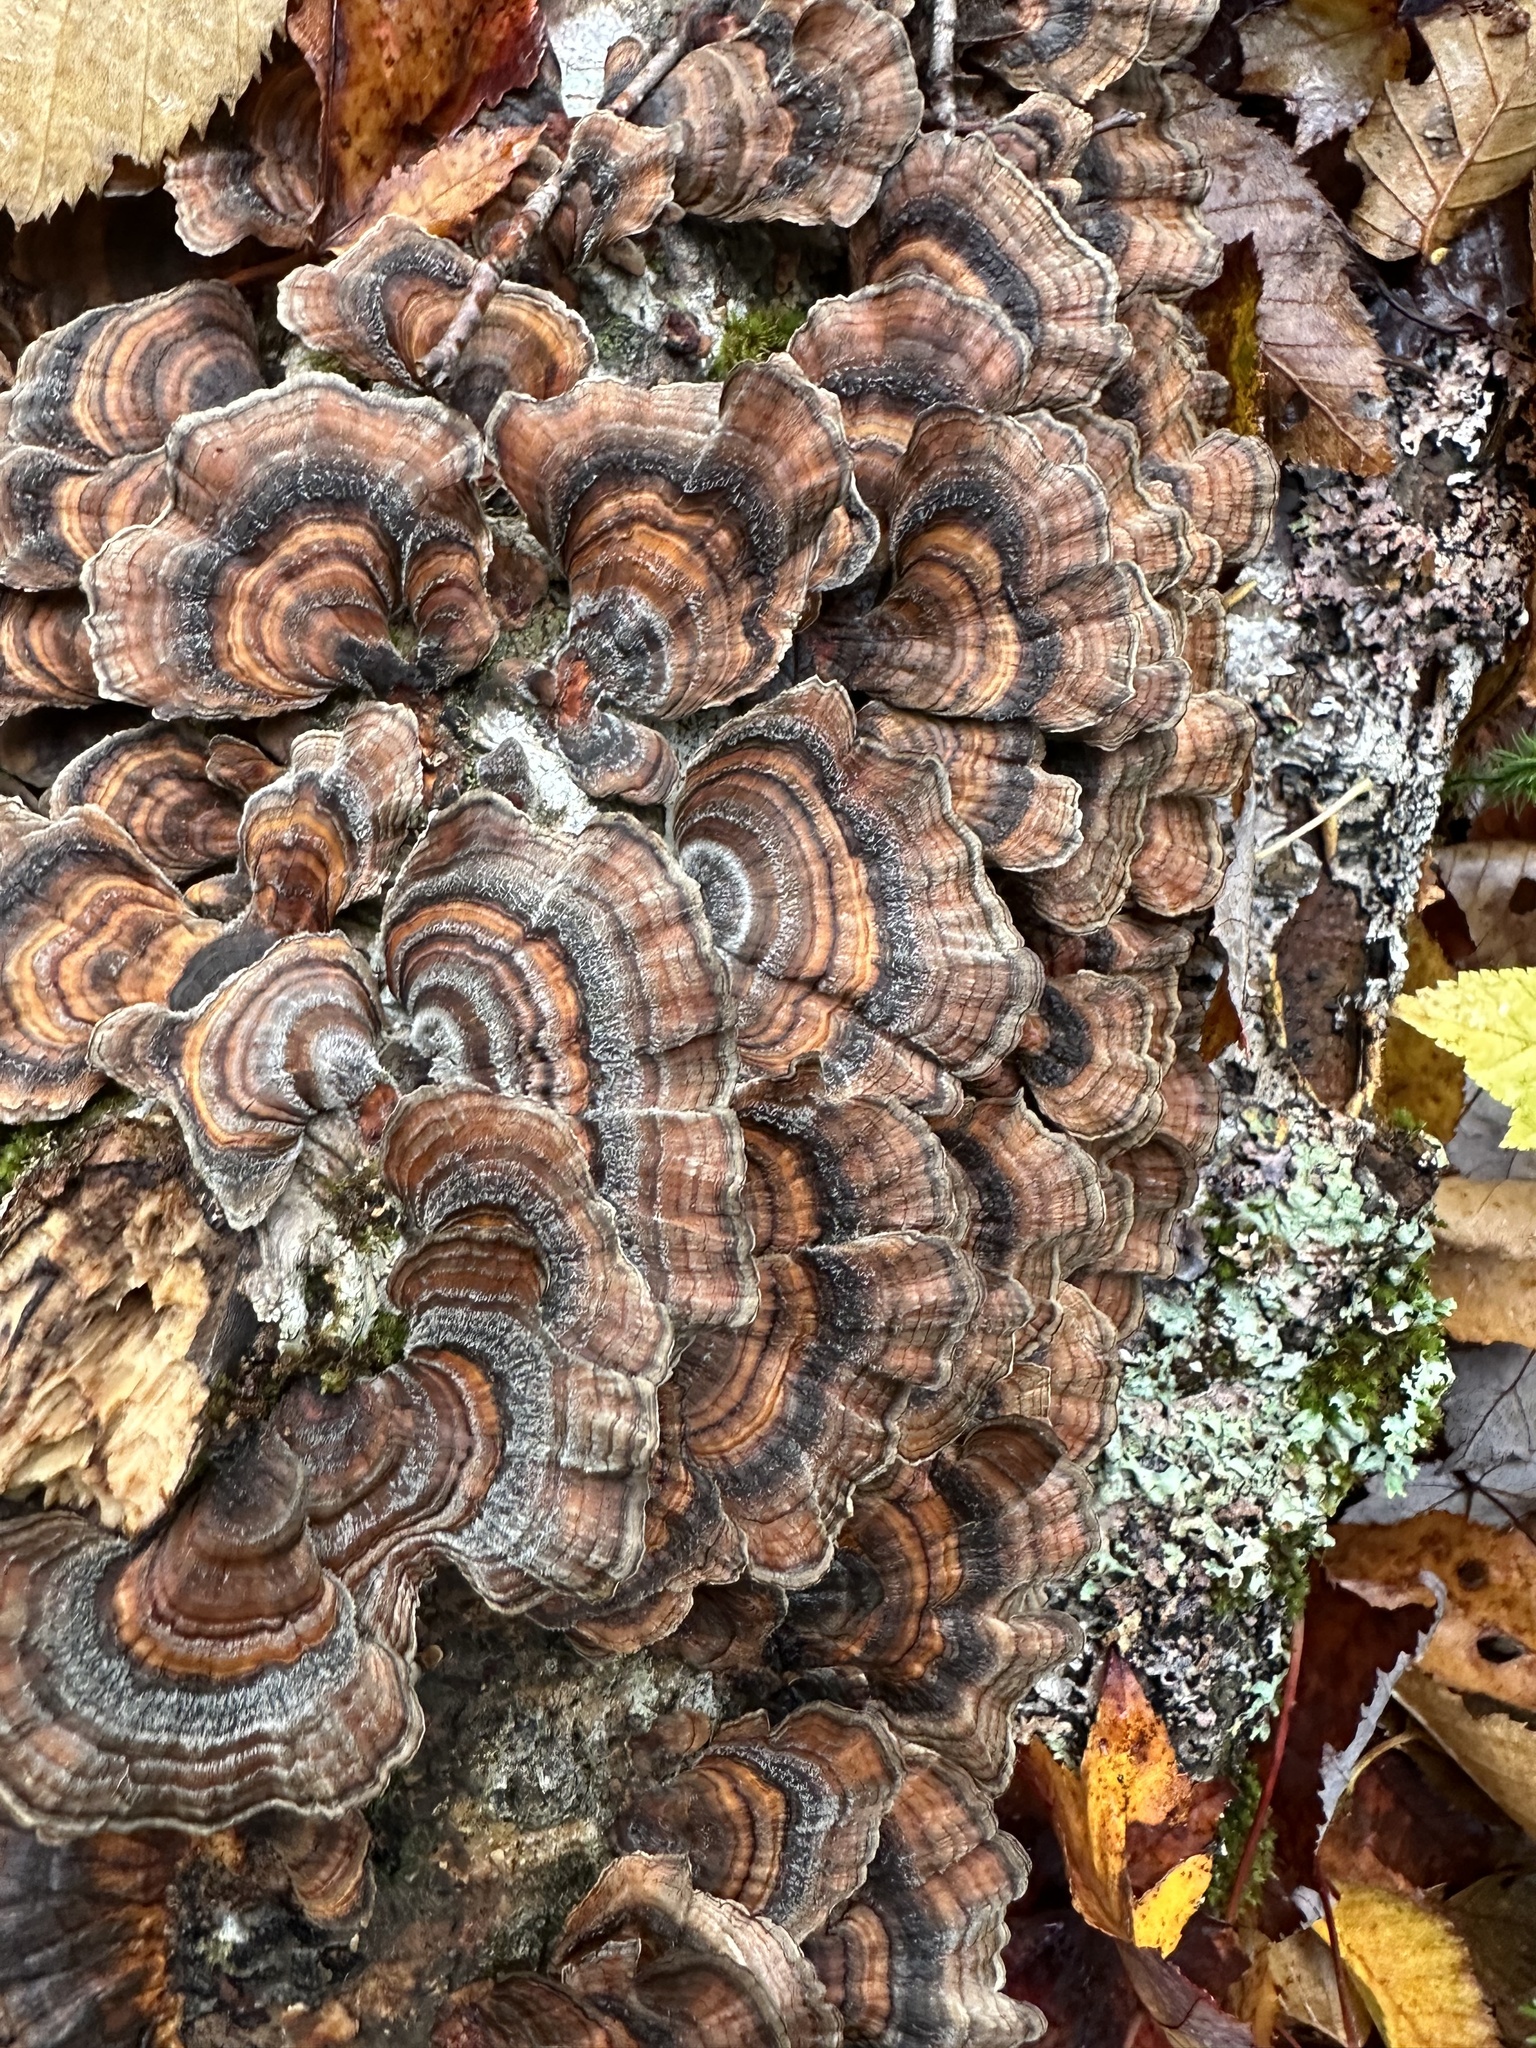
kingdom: Fungi
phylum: Basidiomycota
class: Agaricomycetes
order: Polyporales
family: Polyporaceae
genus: Trametes
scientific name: Trametes versicolor
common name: Turkeytail
